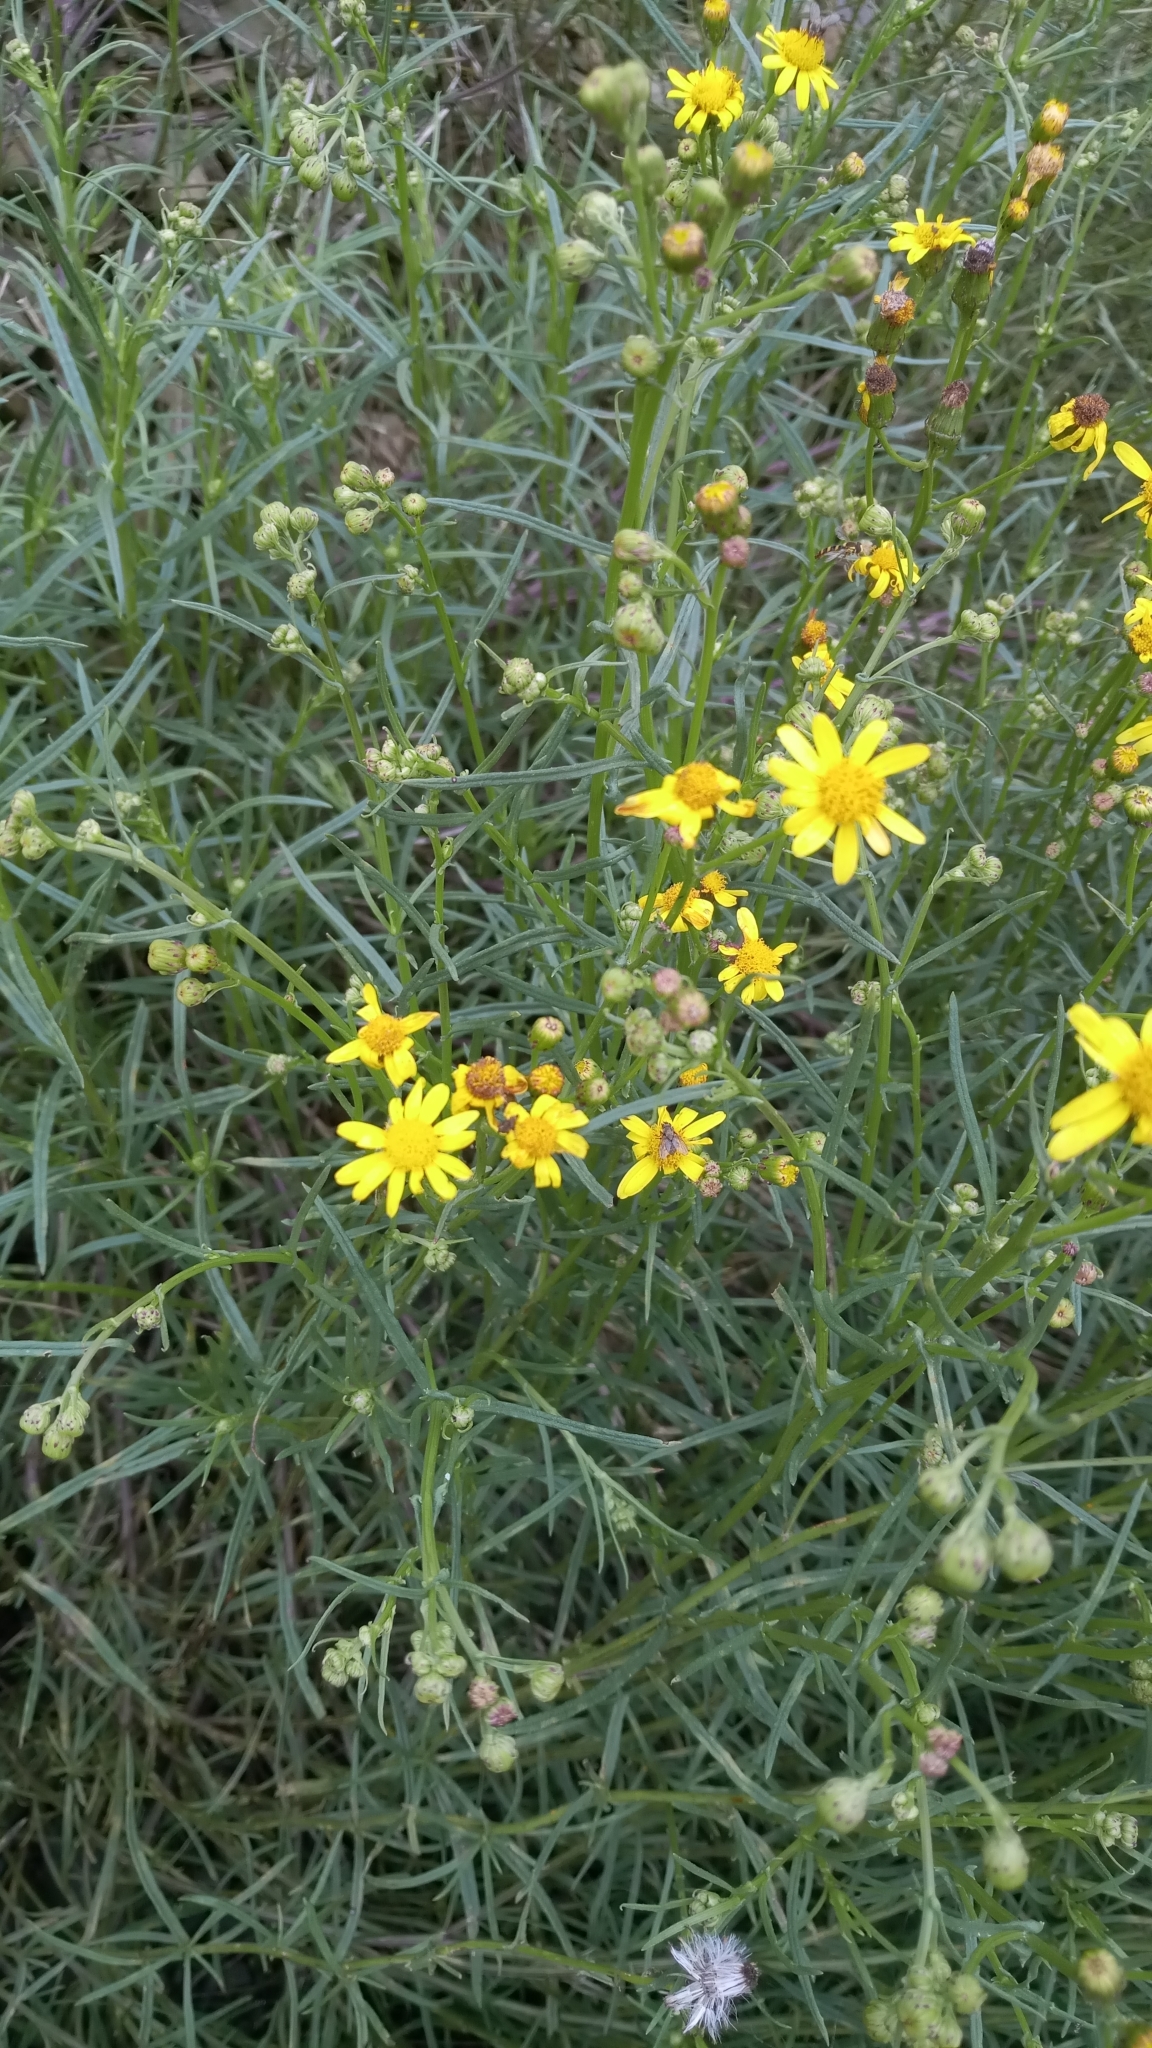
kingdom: Plantae
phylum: Tracheophyta
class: Magnoliopsida
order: Asterales
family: Asteraceae
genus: Senecio
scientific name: Senecio inaequidens
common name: Narrow-leaved ragwort
